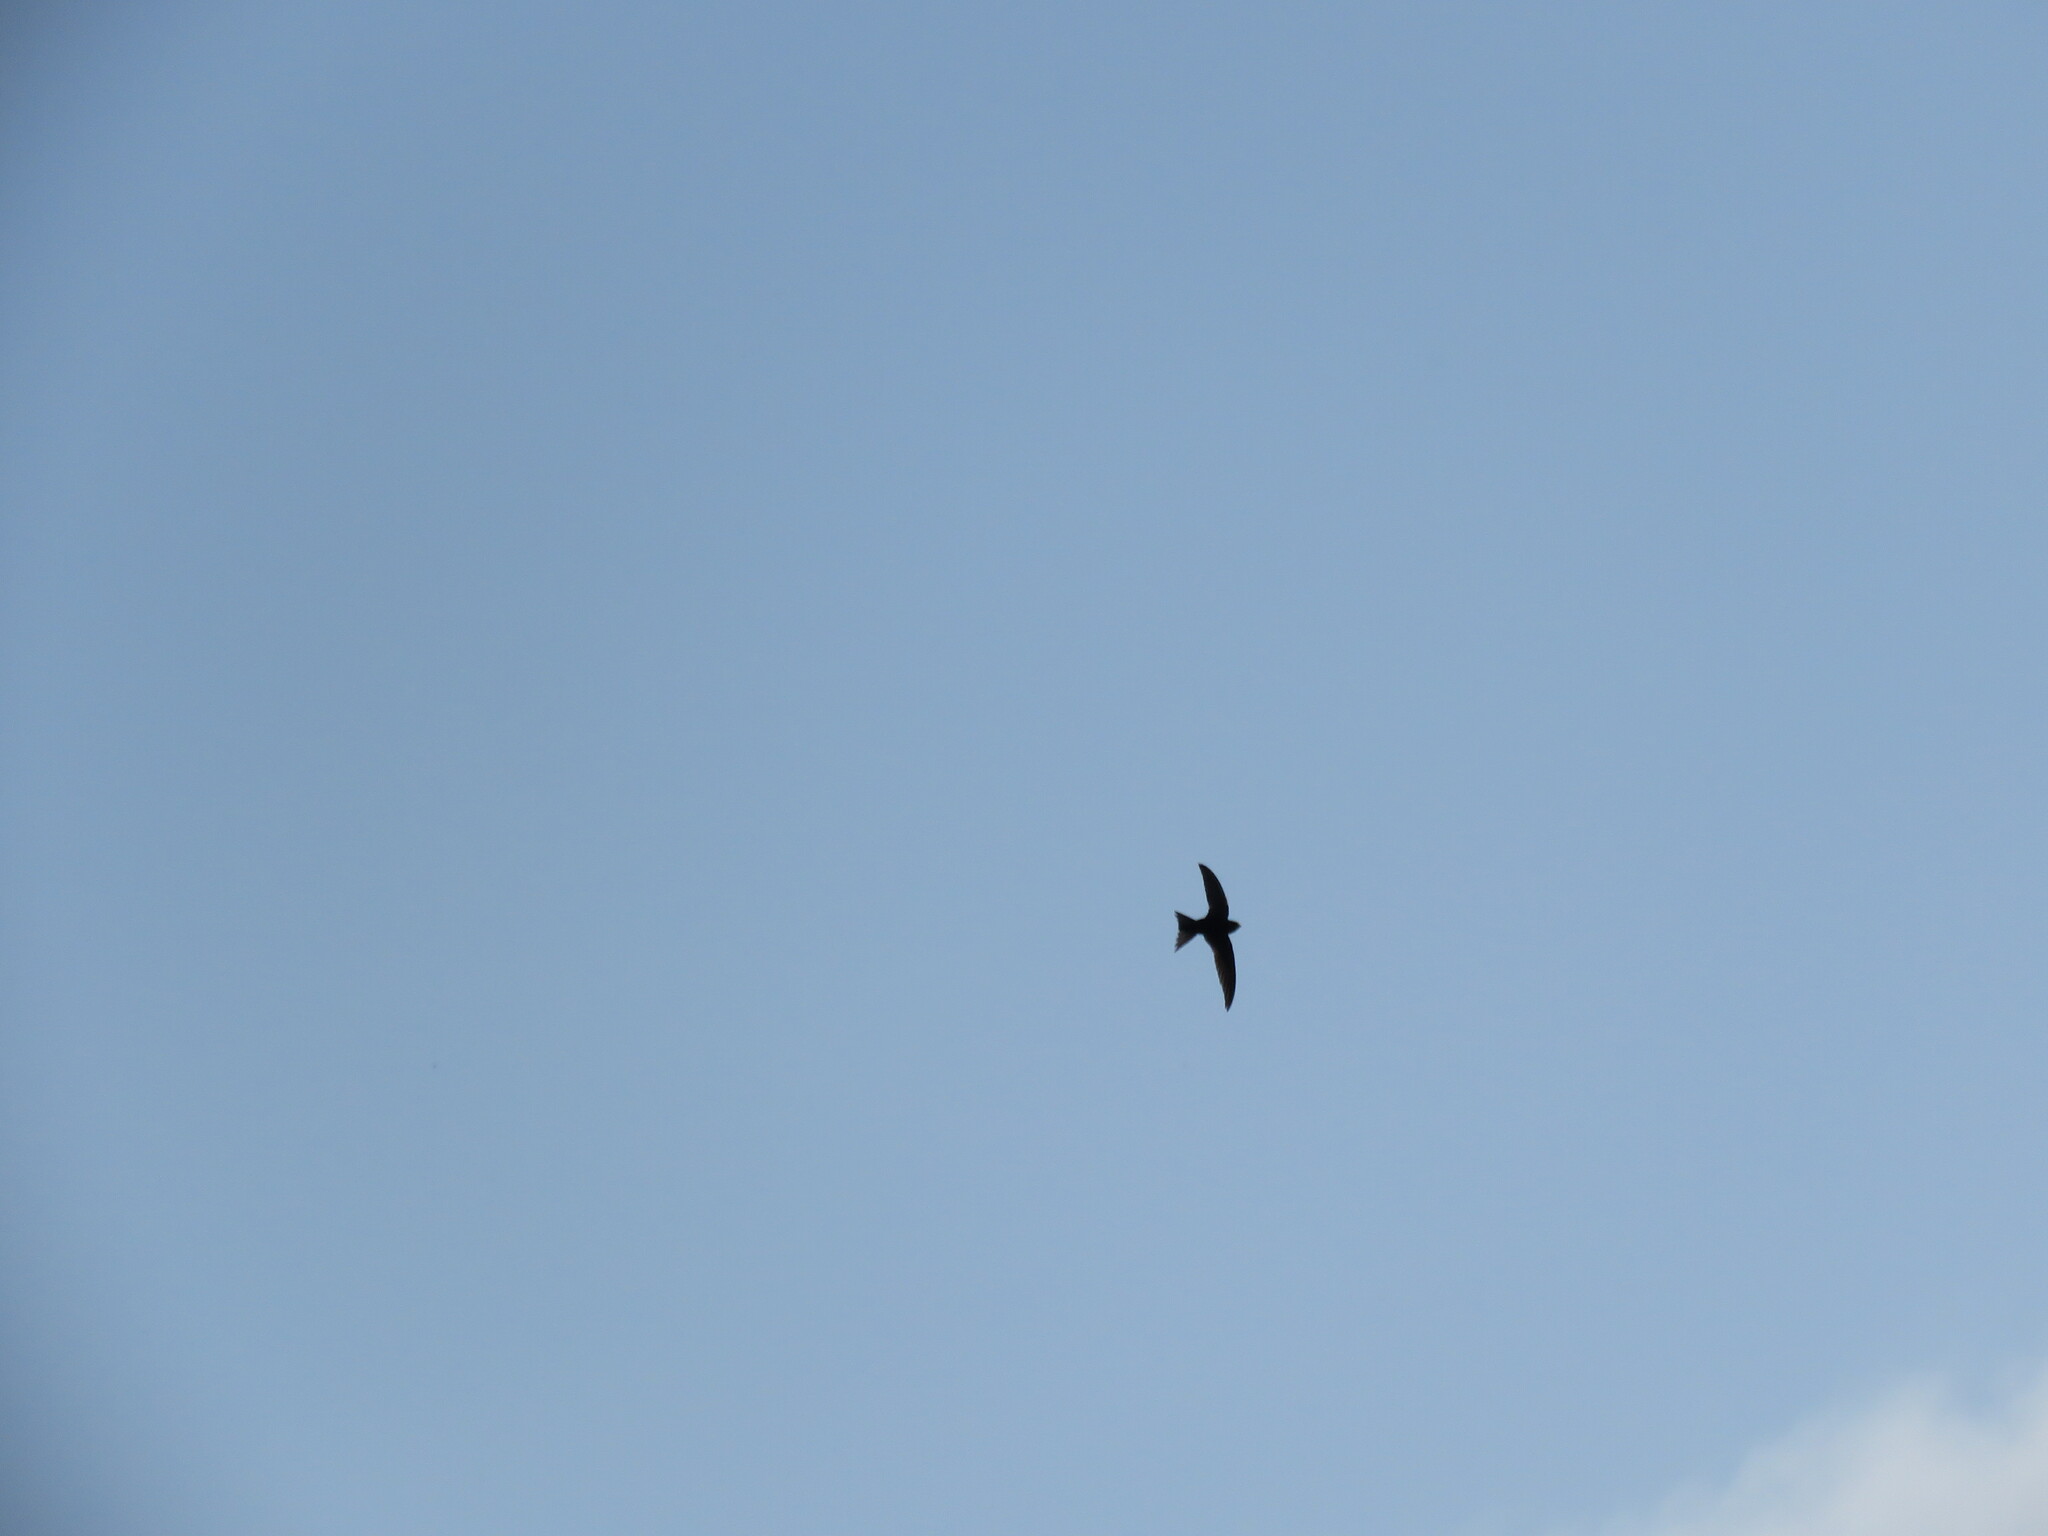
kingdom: Animalia
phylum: Chordata
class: Aves
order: Apodiformes
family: Apodidae
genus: Apus
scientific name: Apus apus
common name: Common swift
